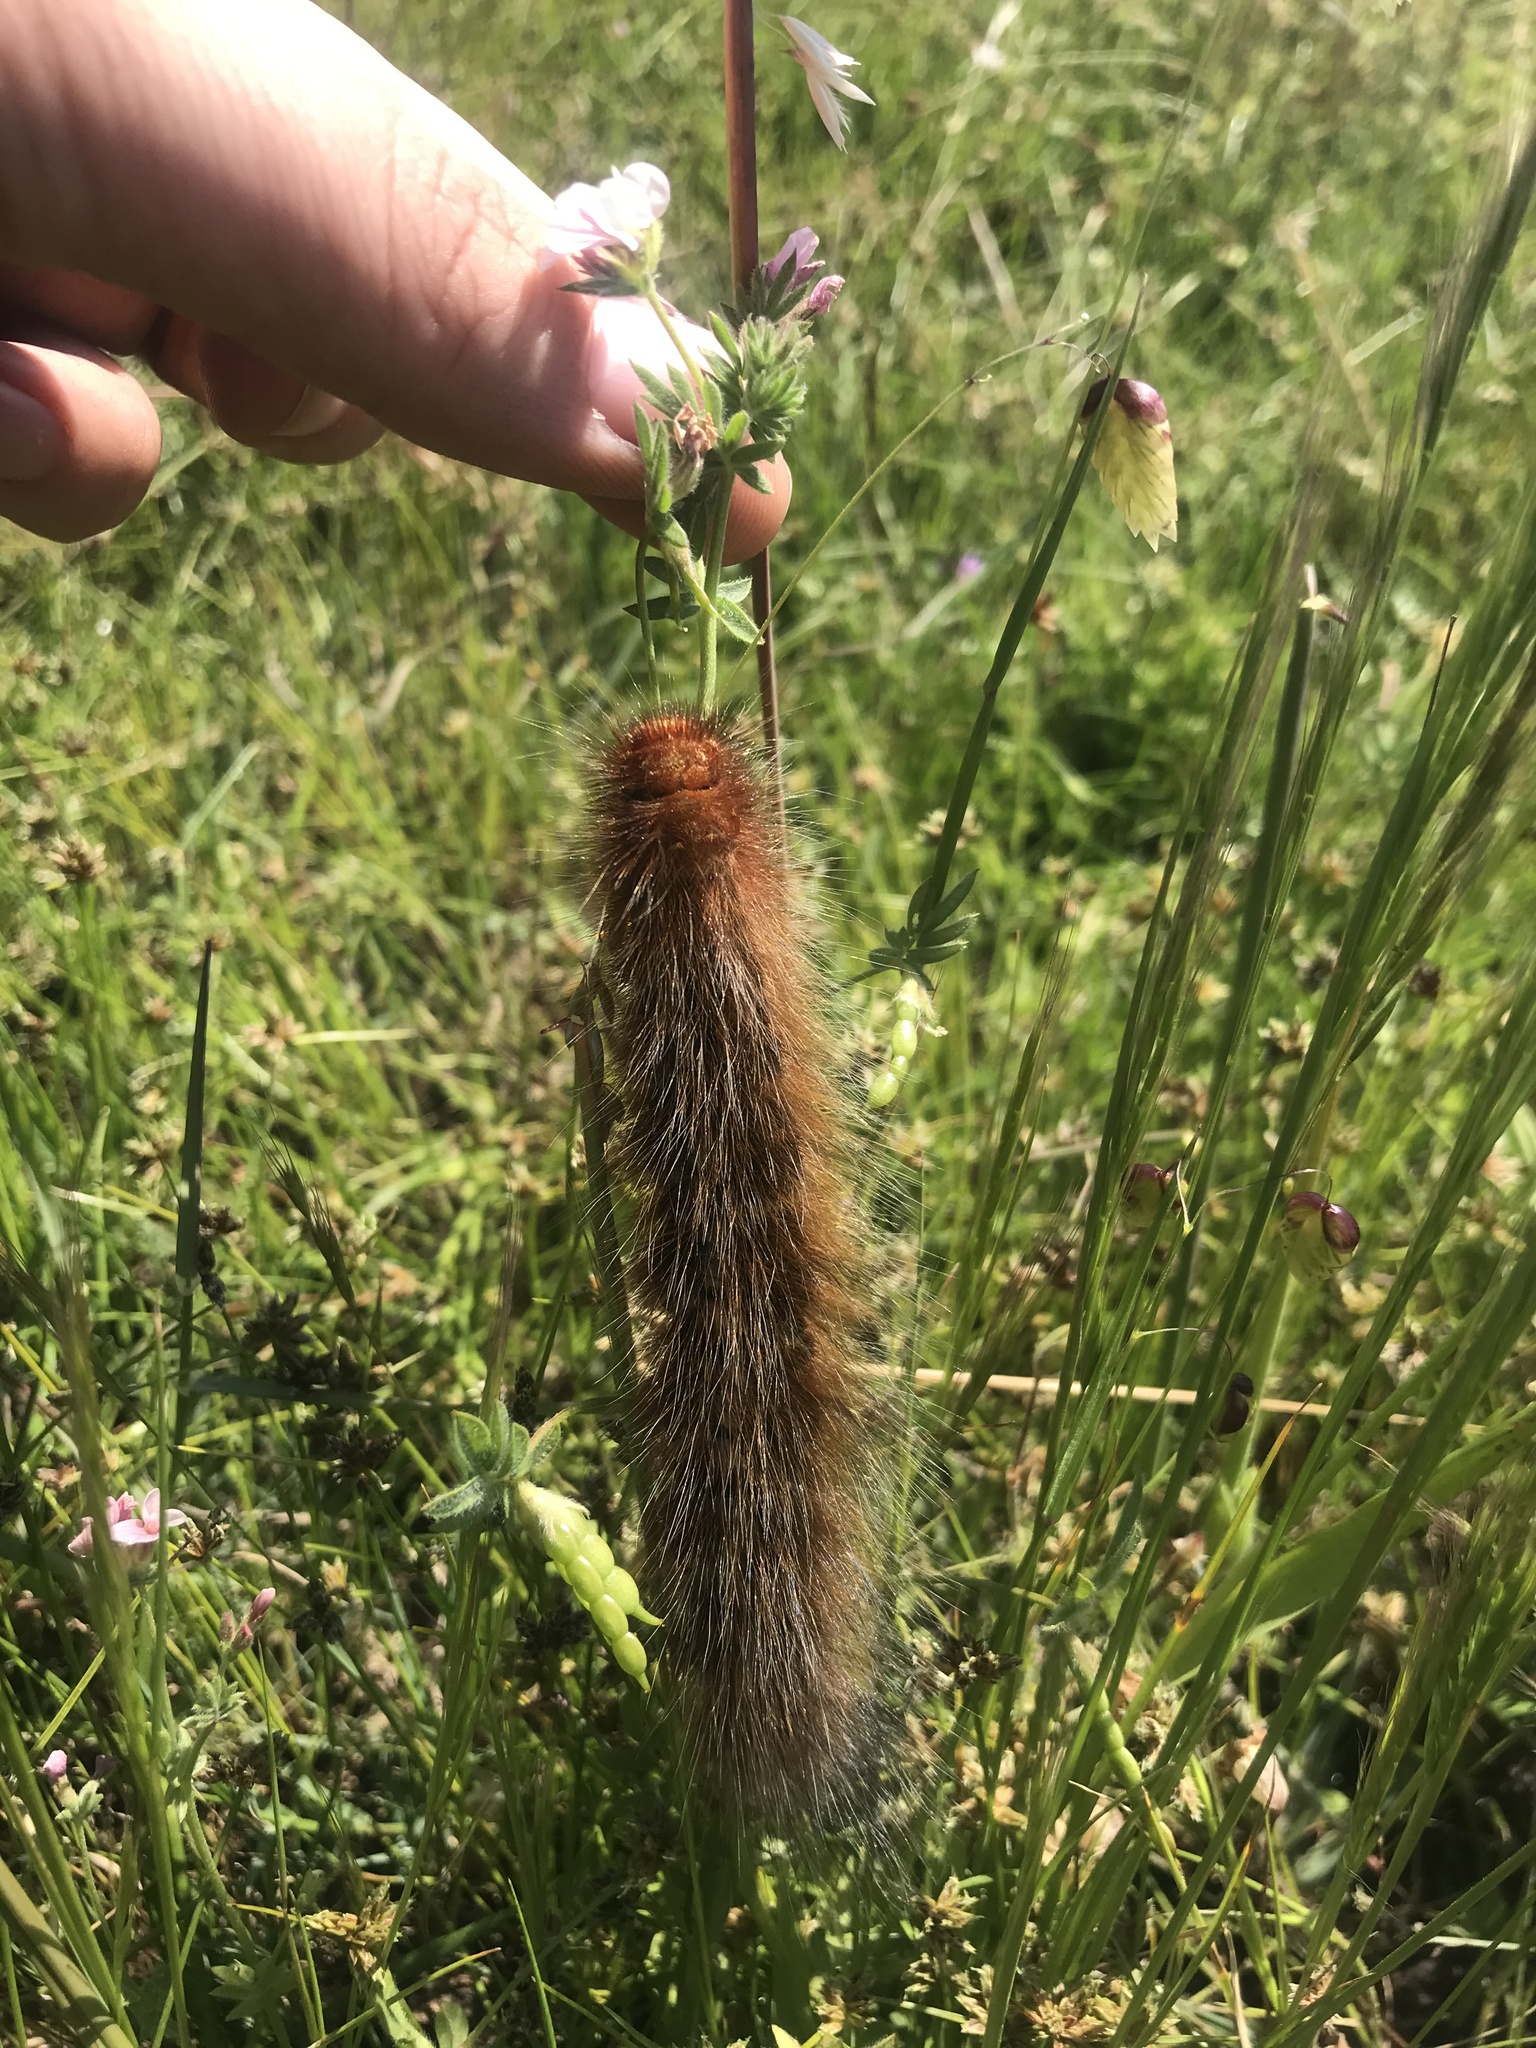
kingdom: Animalia
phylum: Arthropoda
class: Insecta
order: Lepidoptera
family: Lasiocampidae
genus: Mesocelis
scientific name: Mesocelis monticola
